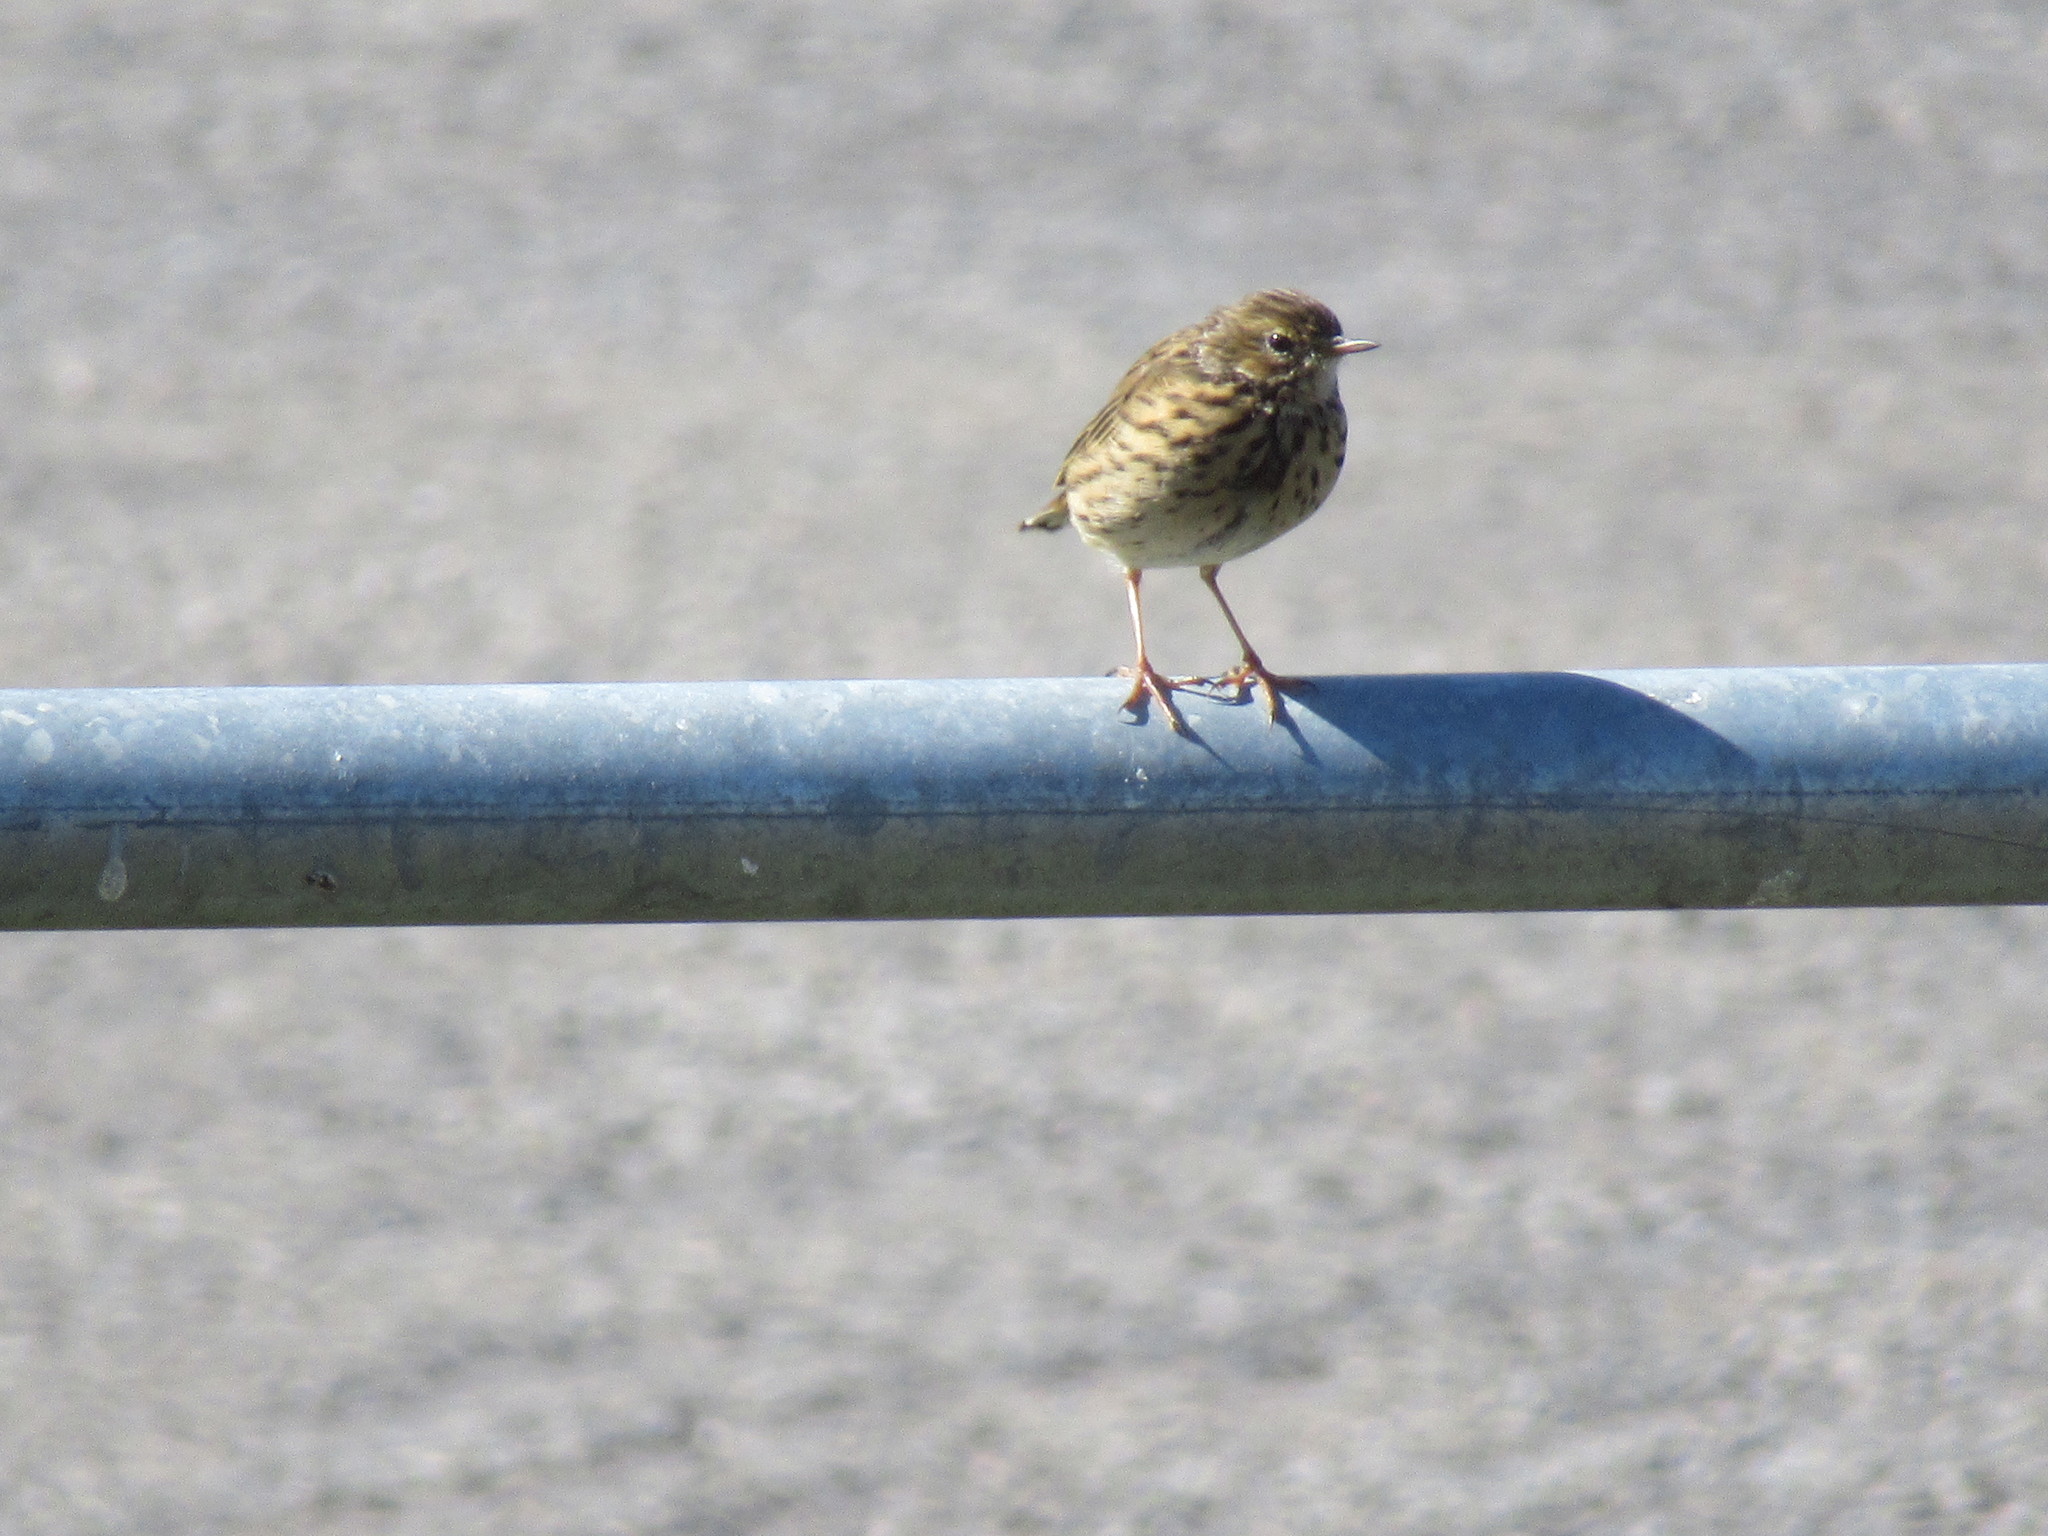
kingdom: Animalia
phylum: Chordata
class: Aves
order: Passeriformes
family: Motacillidae
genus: Anthus
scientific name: Anthus pratensis
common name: Meadow pipit
